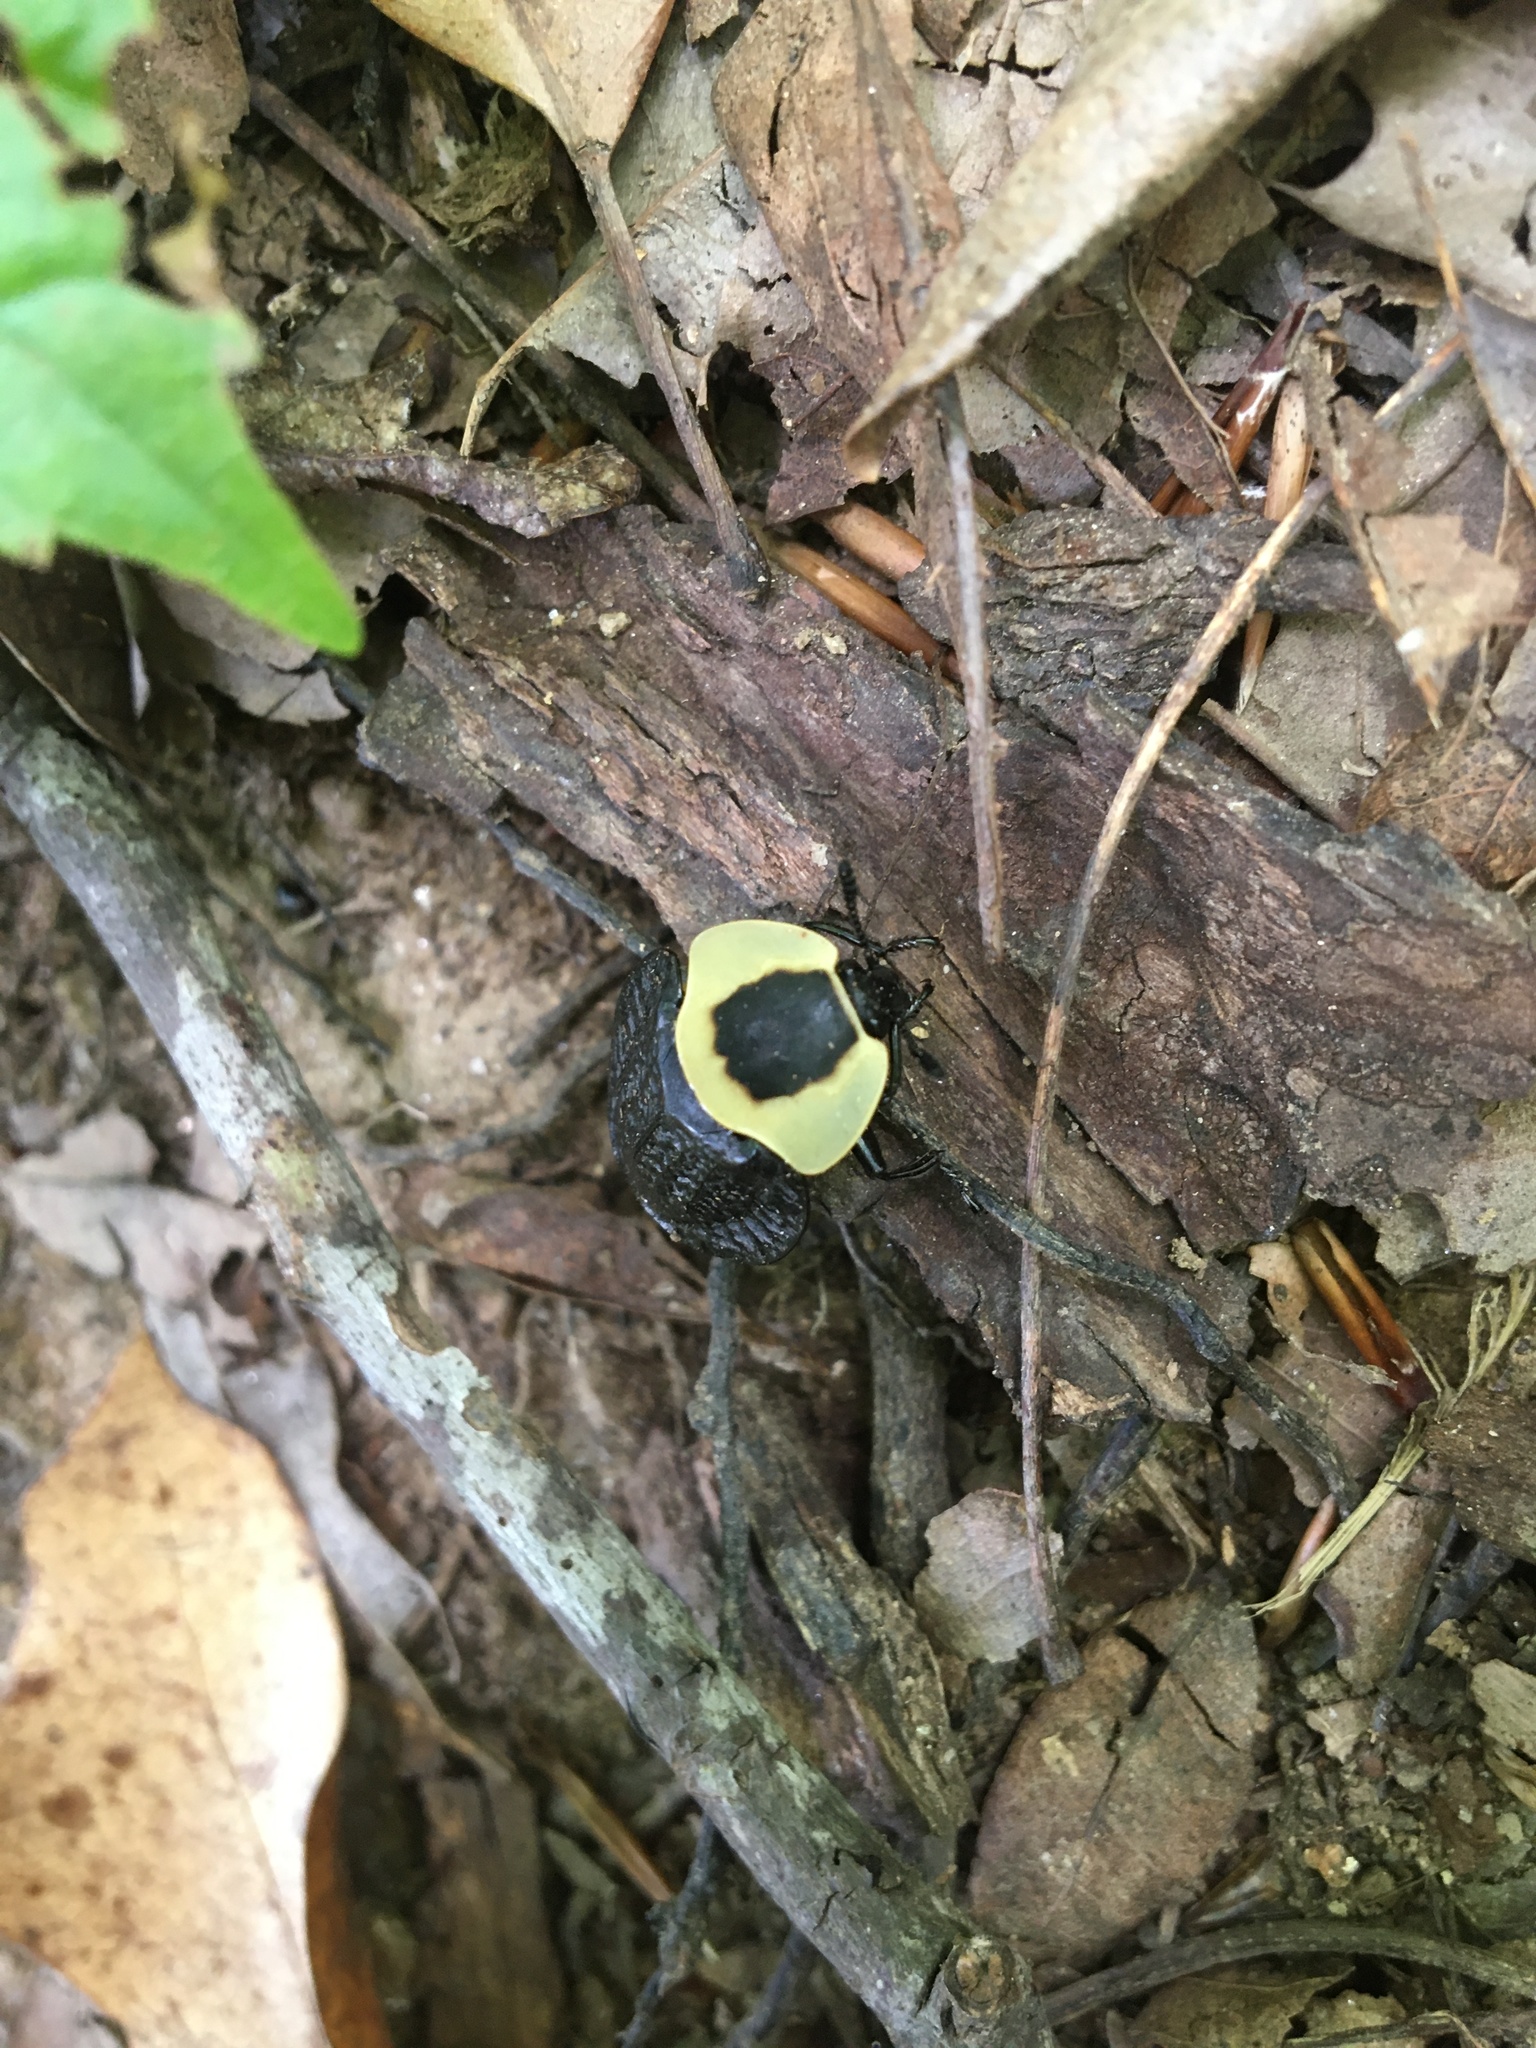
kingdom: Animalia
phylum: Arthropoda
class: Insecta
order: Coleoptera
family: Staphylinidae
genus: Necrophila
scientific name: Necrophila americana
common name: American carrion beetle
